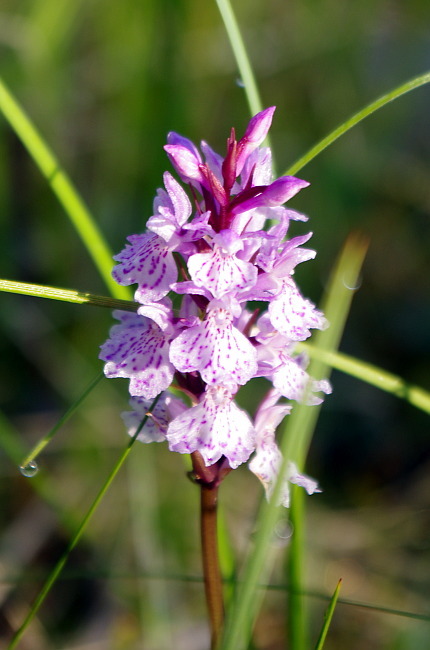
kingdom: Plantae
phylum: Tracheophyta
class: Liliopsida
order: Asparagales
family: Orchidaceae
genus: Dactylorhiza
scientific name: Dactylorhiza maculata
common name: Heath spotted-orchid
